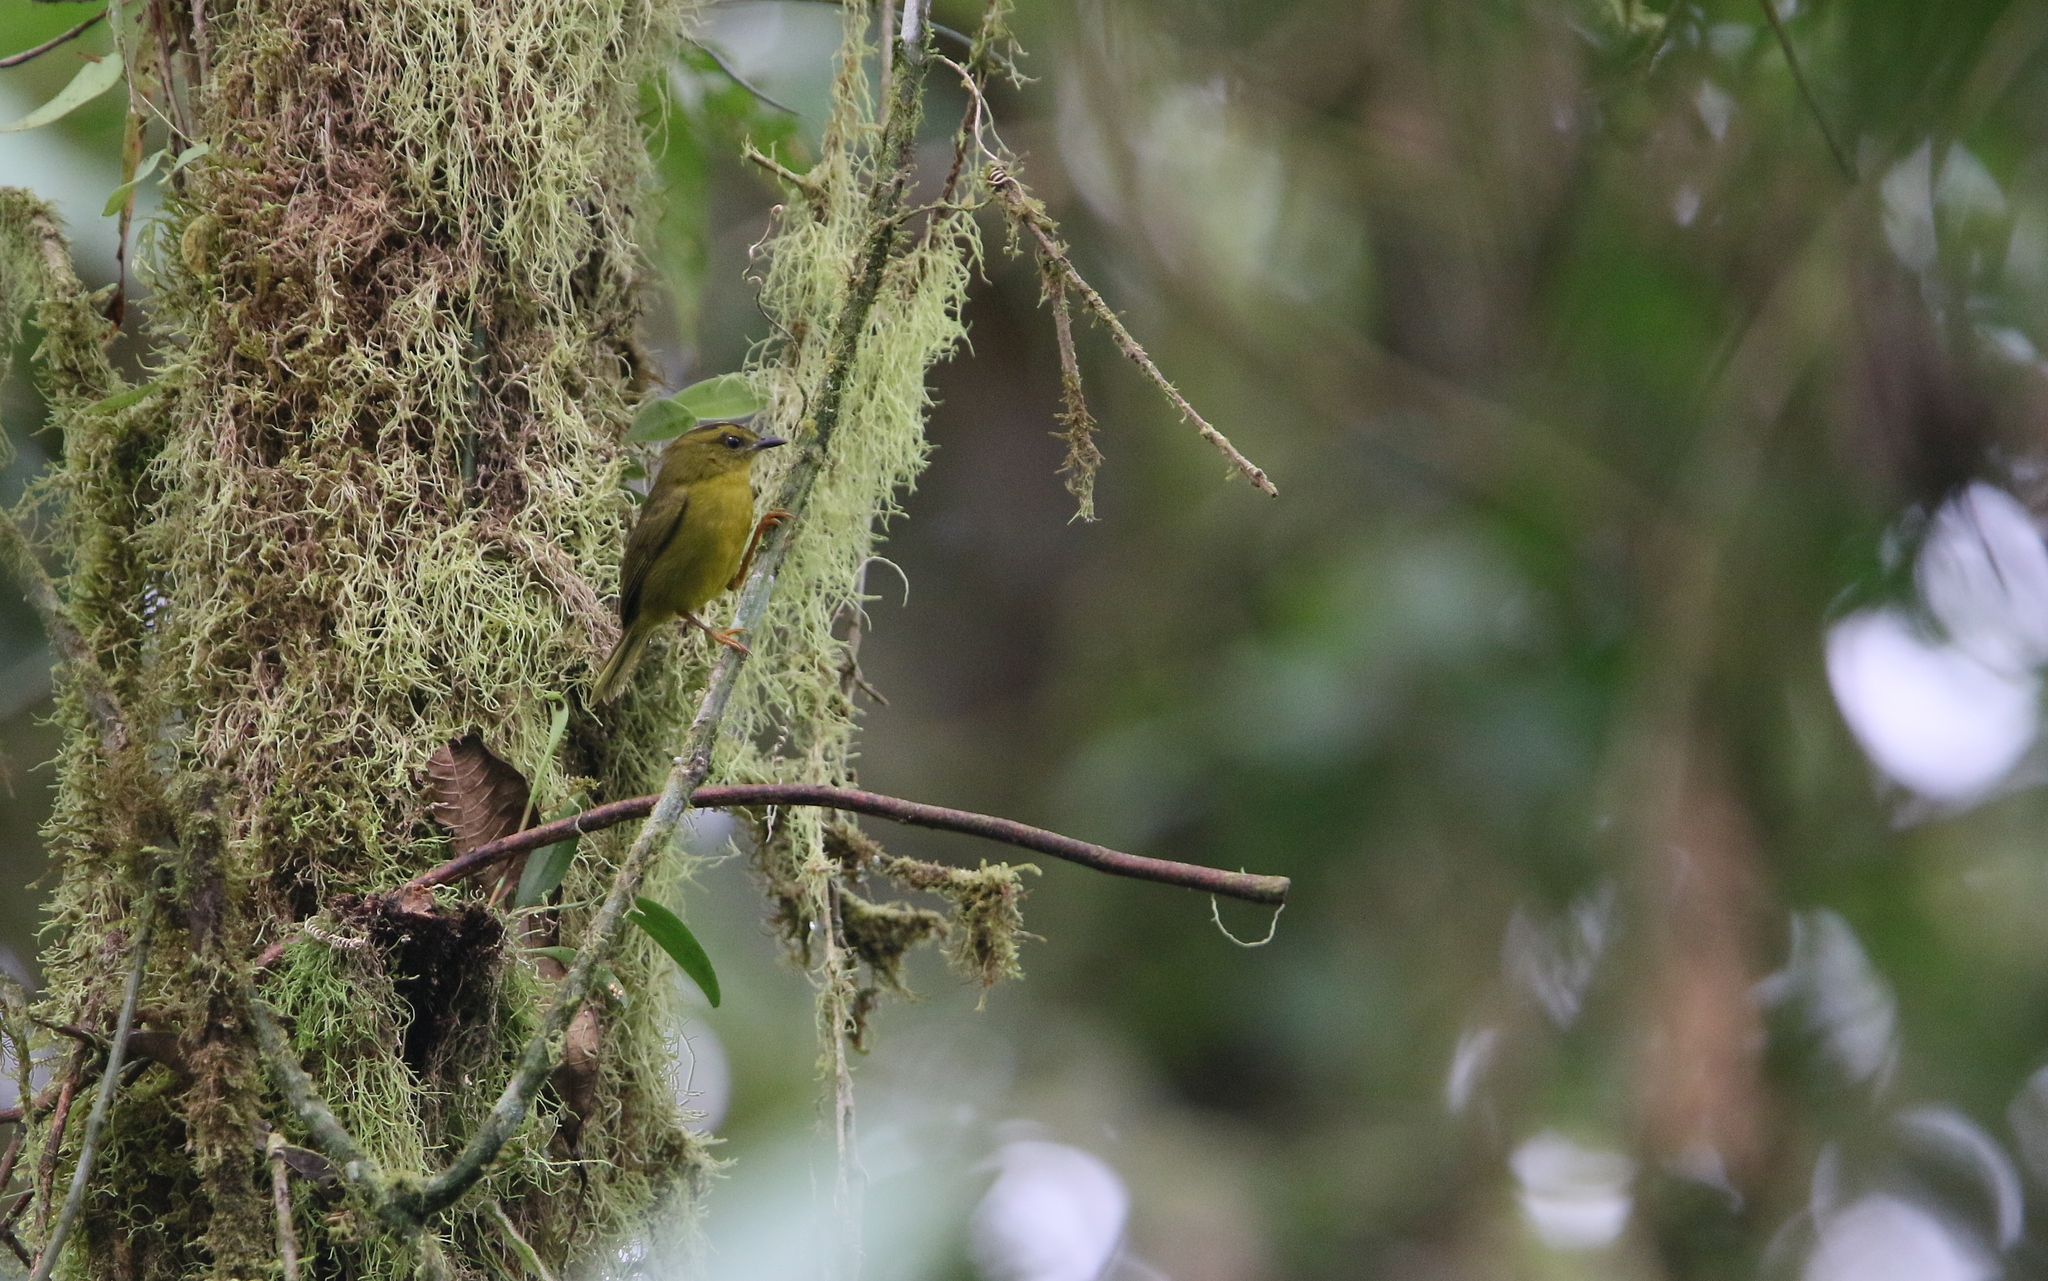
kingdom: Animalia
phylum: Chordata
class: Aves
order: Passeriformes
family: Parulidae
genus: Myiothlypis
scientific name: Myiothlypis chlorophrys
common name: Choco warbler
